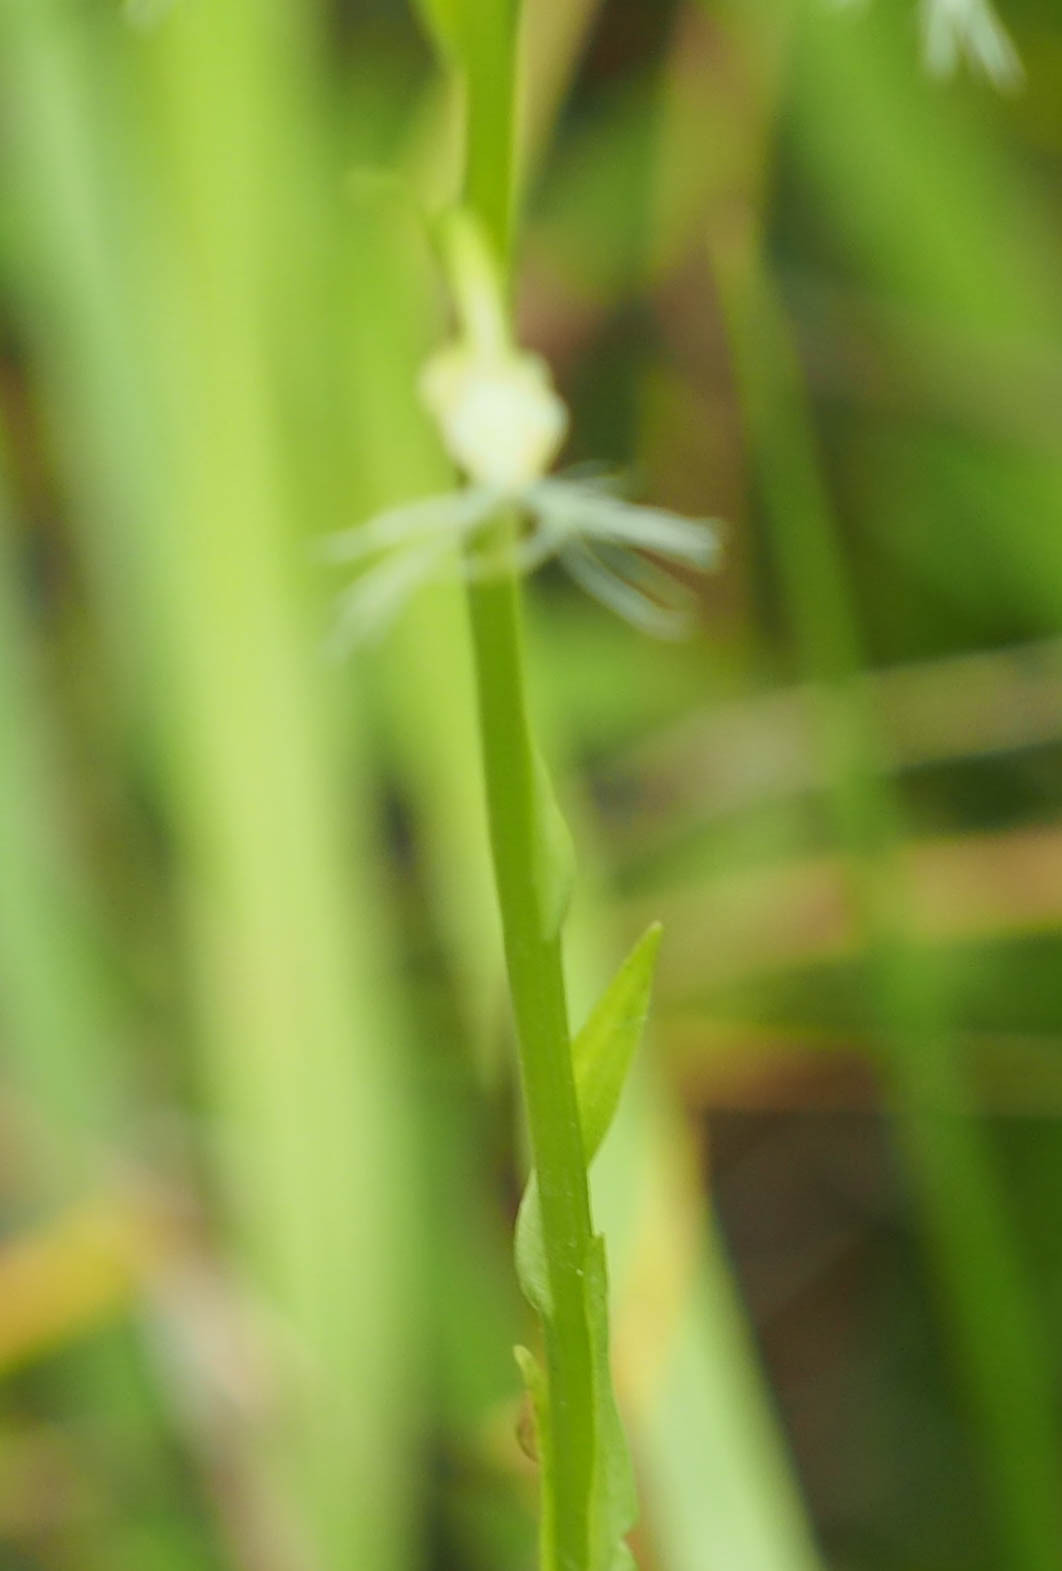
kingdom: Plantae
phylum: Tracheophyta
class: Liliopsida
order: Asparagales
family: Orchidaceae
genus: Platanthera
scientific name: Platanthera lacera
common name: Green fringed orchid
